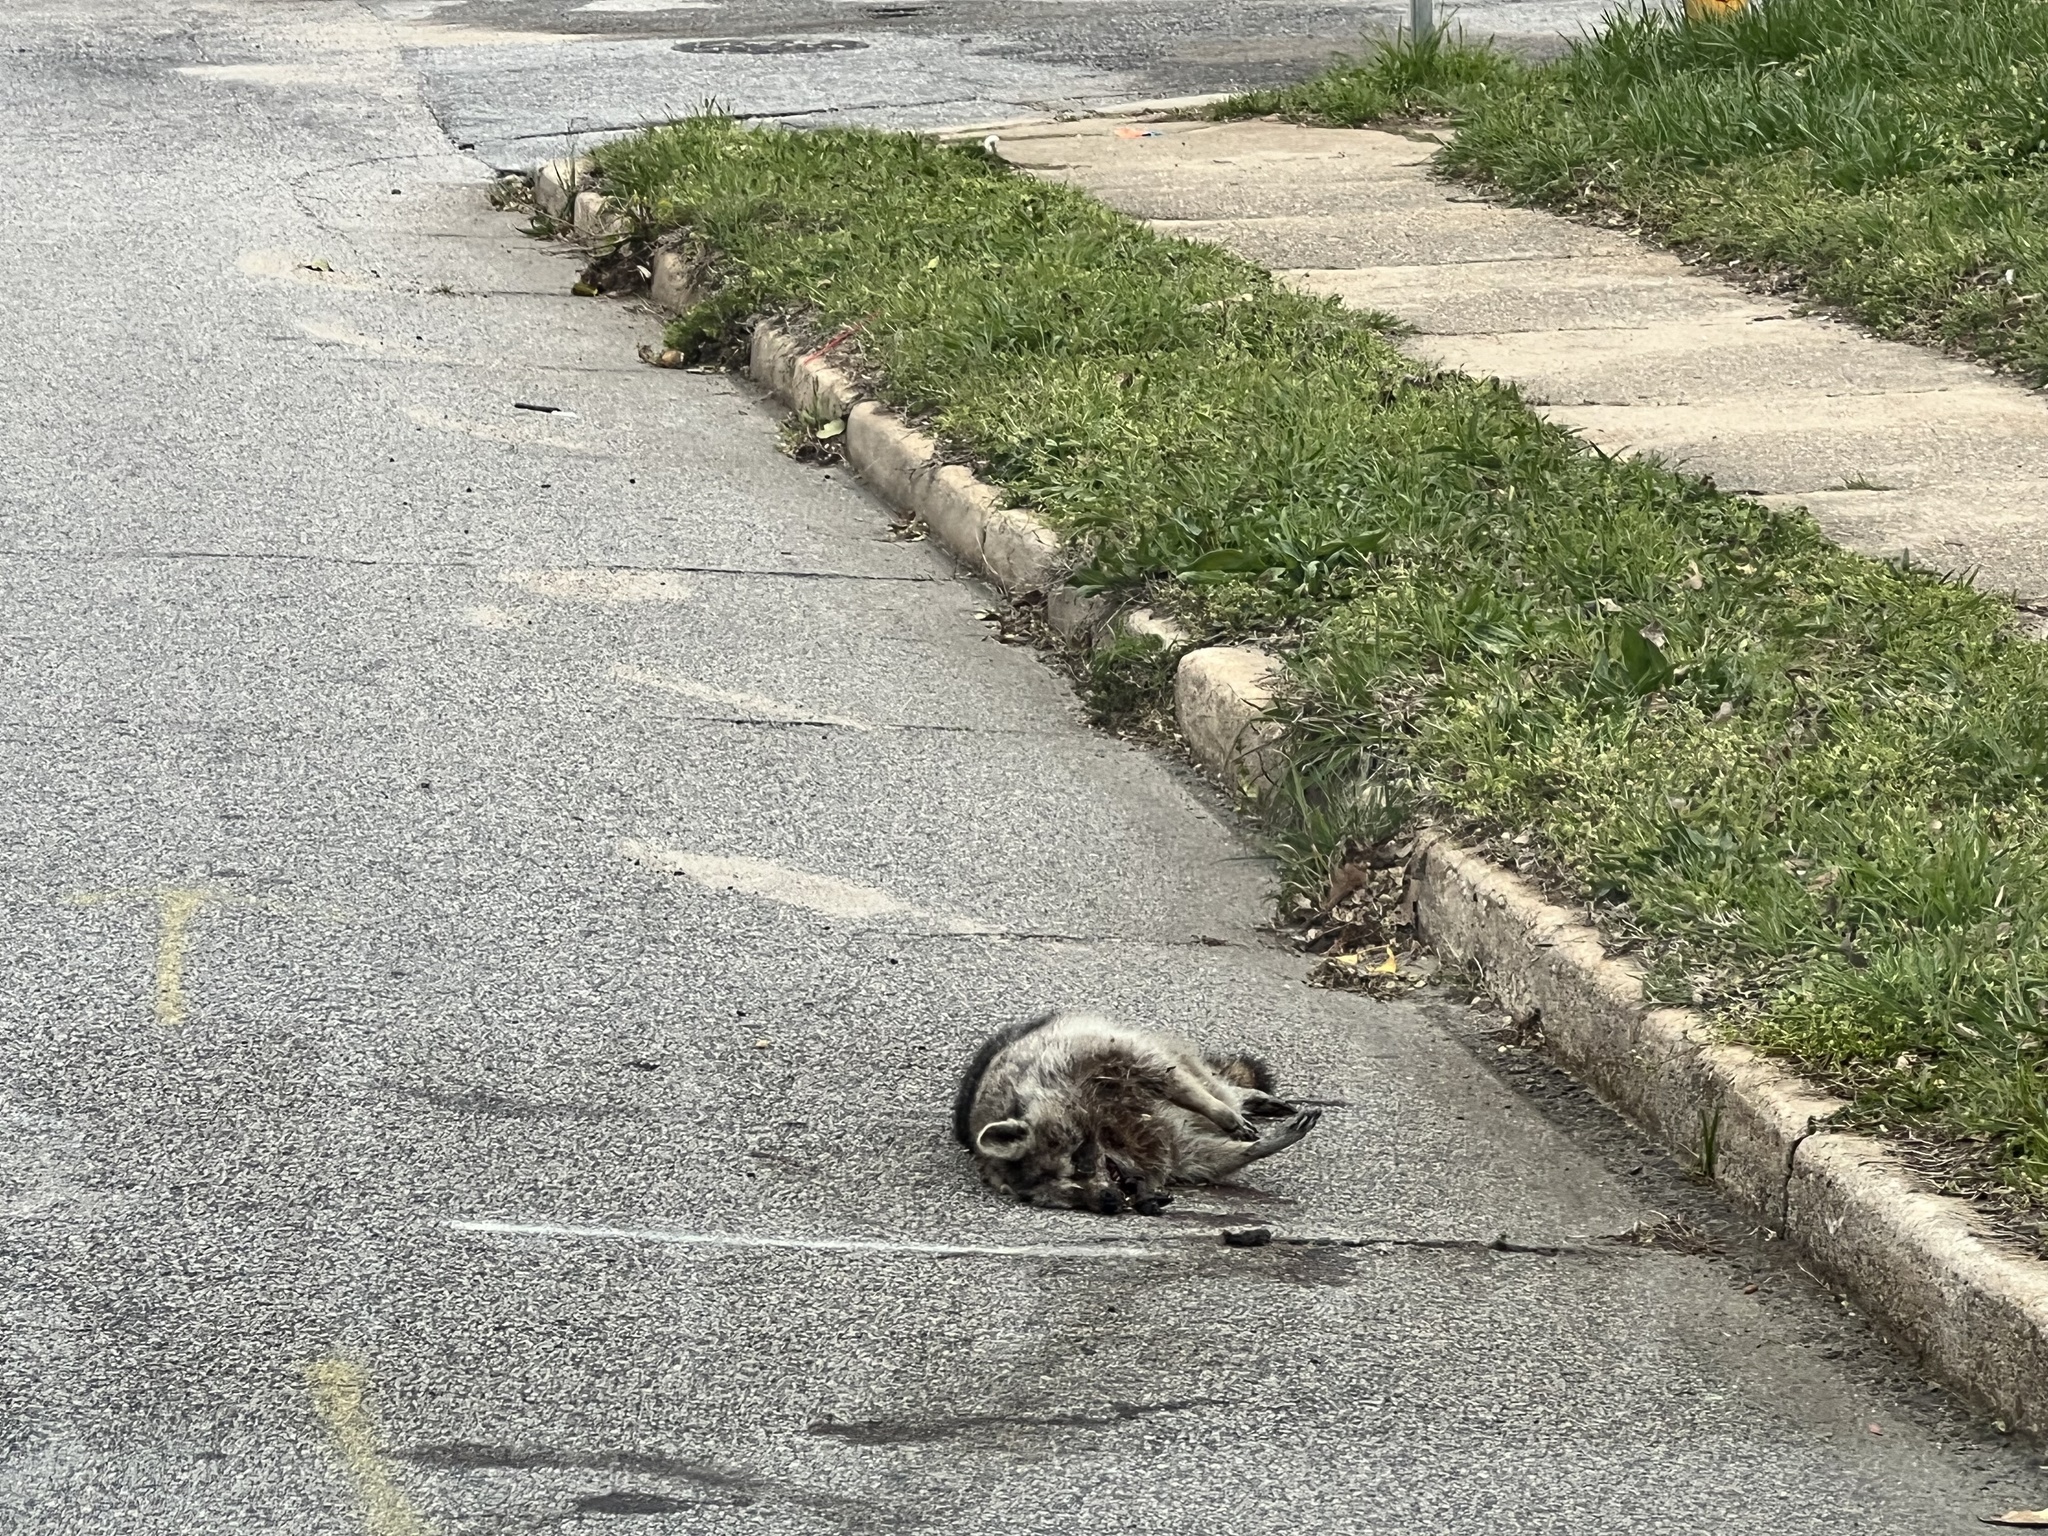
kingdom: Animalia
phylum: Chordata
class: Mammalia
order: Carnivora
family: Procyonidae
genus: Procyon
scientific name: Procyon lotor
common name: Raccoon
